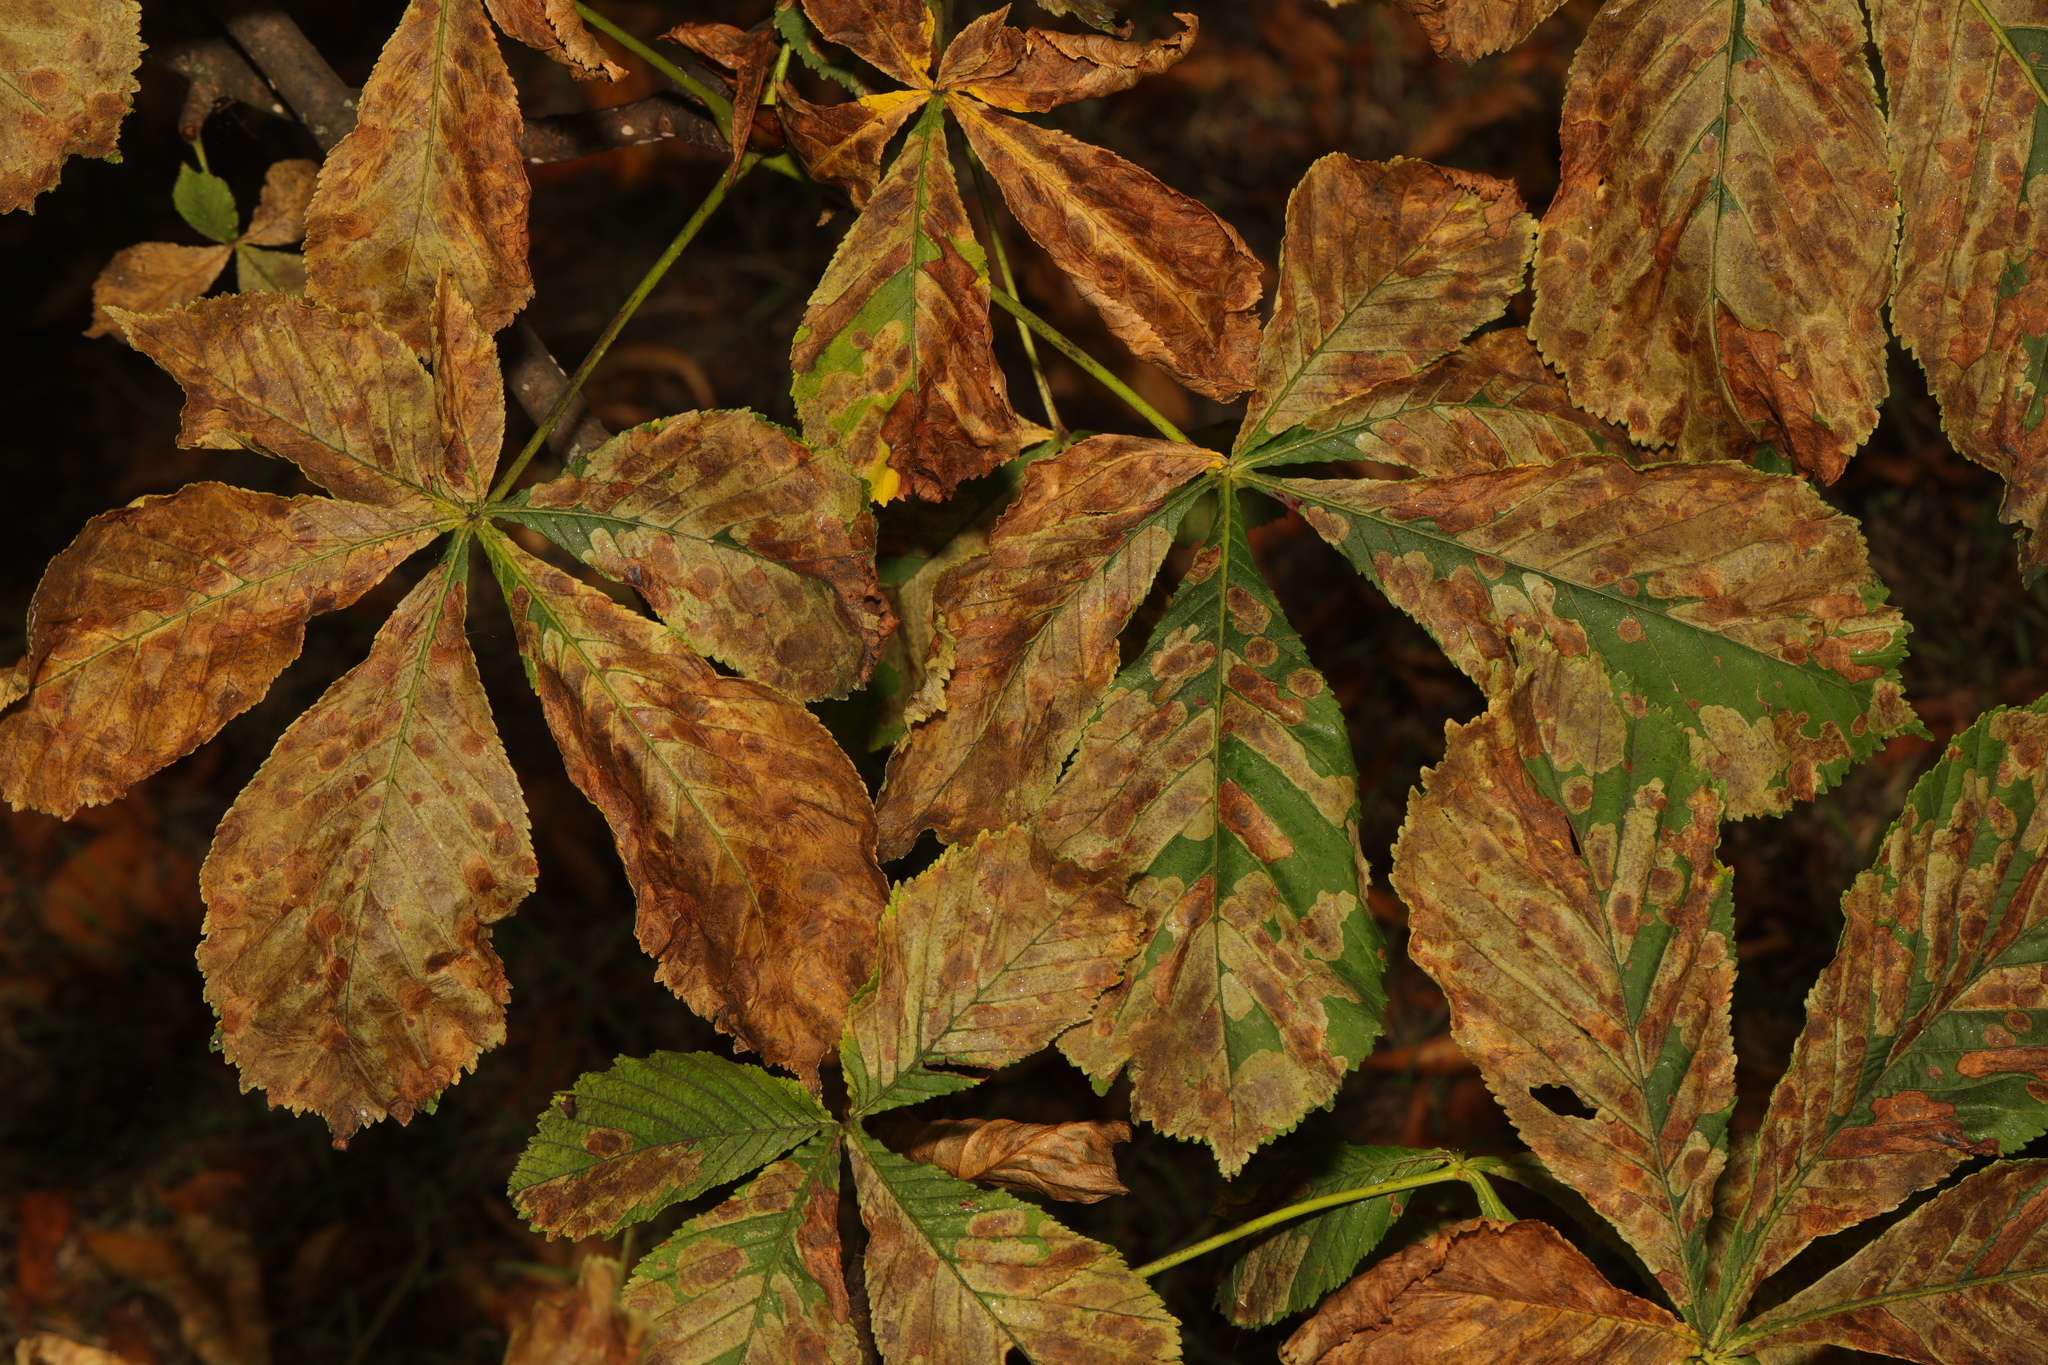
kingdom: Plantae
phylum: Tracheophyta
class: Magnoliopsida
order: Sapindales
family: Sapindaceae
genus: Aesculus
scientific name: Aesculus hippocastanum
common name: Horse-chestnut
